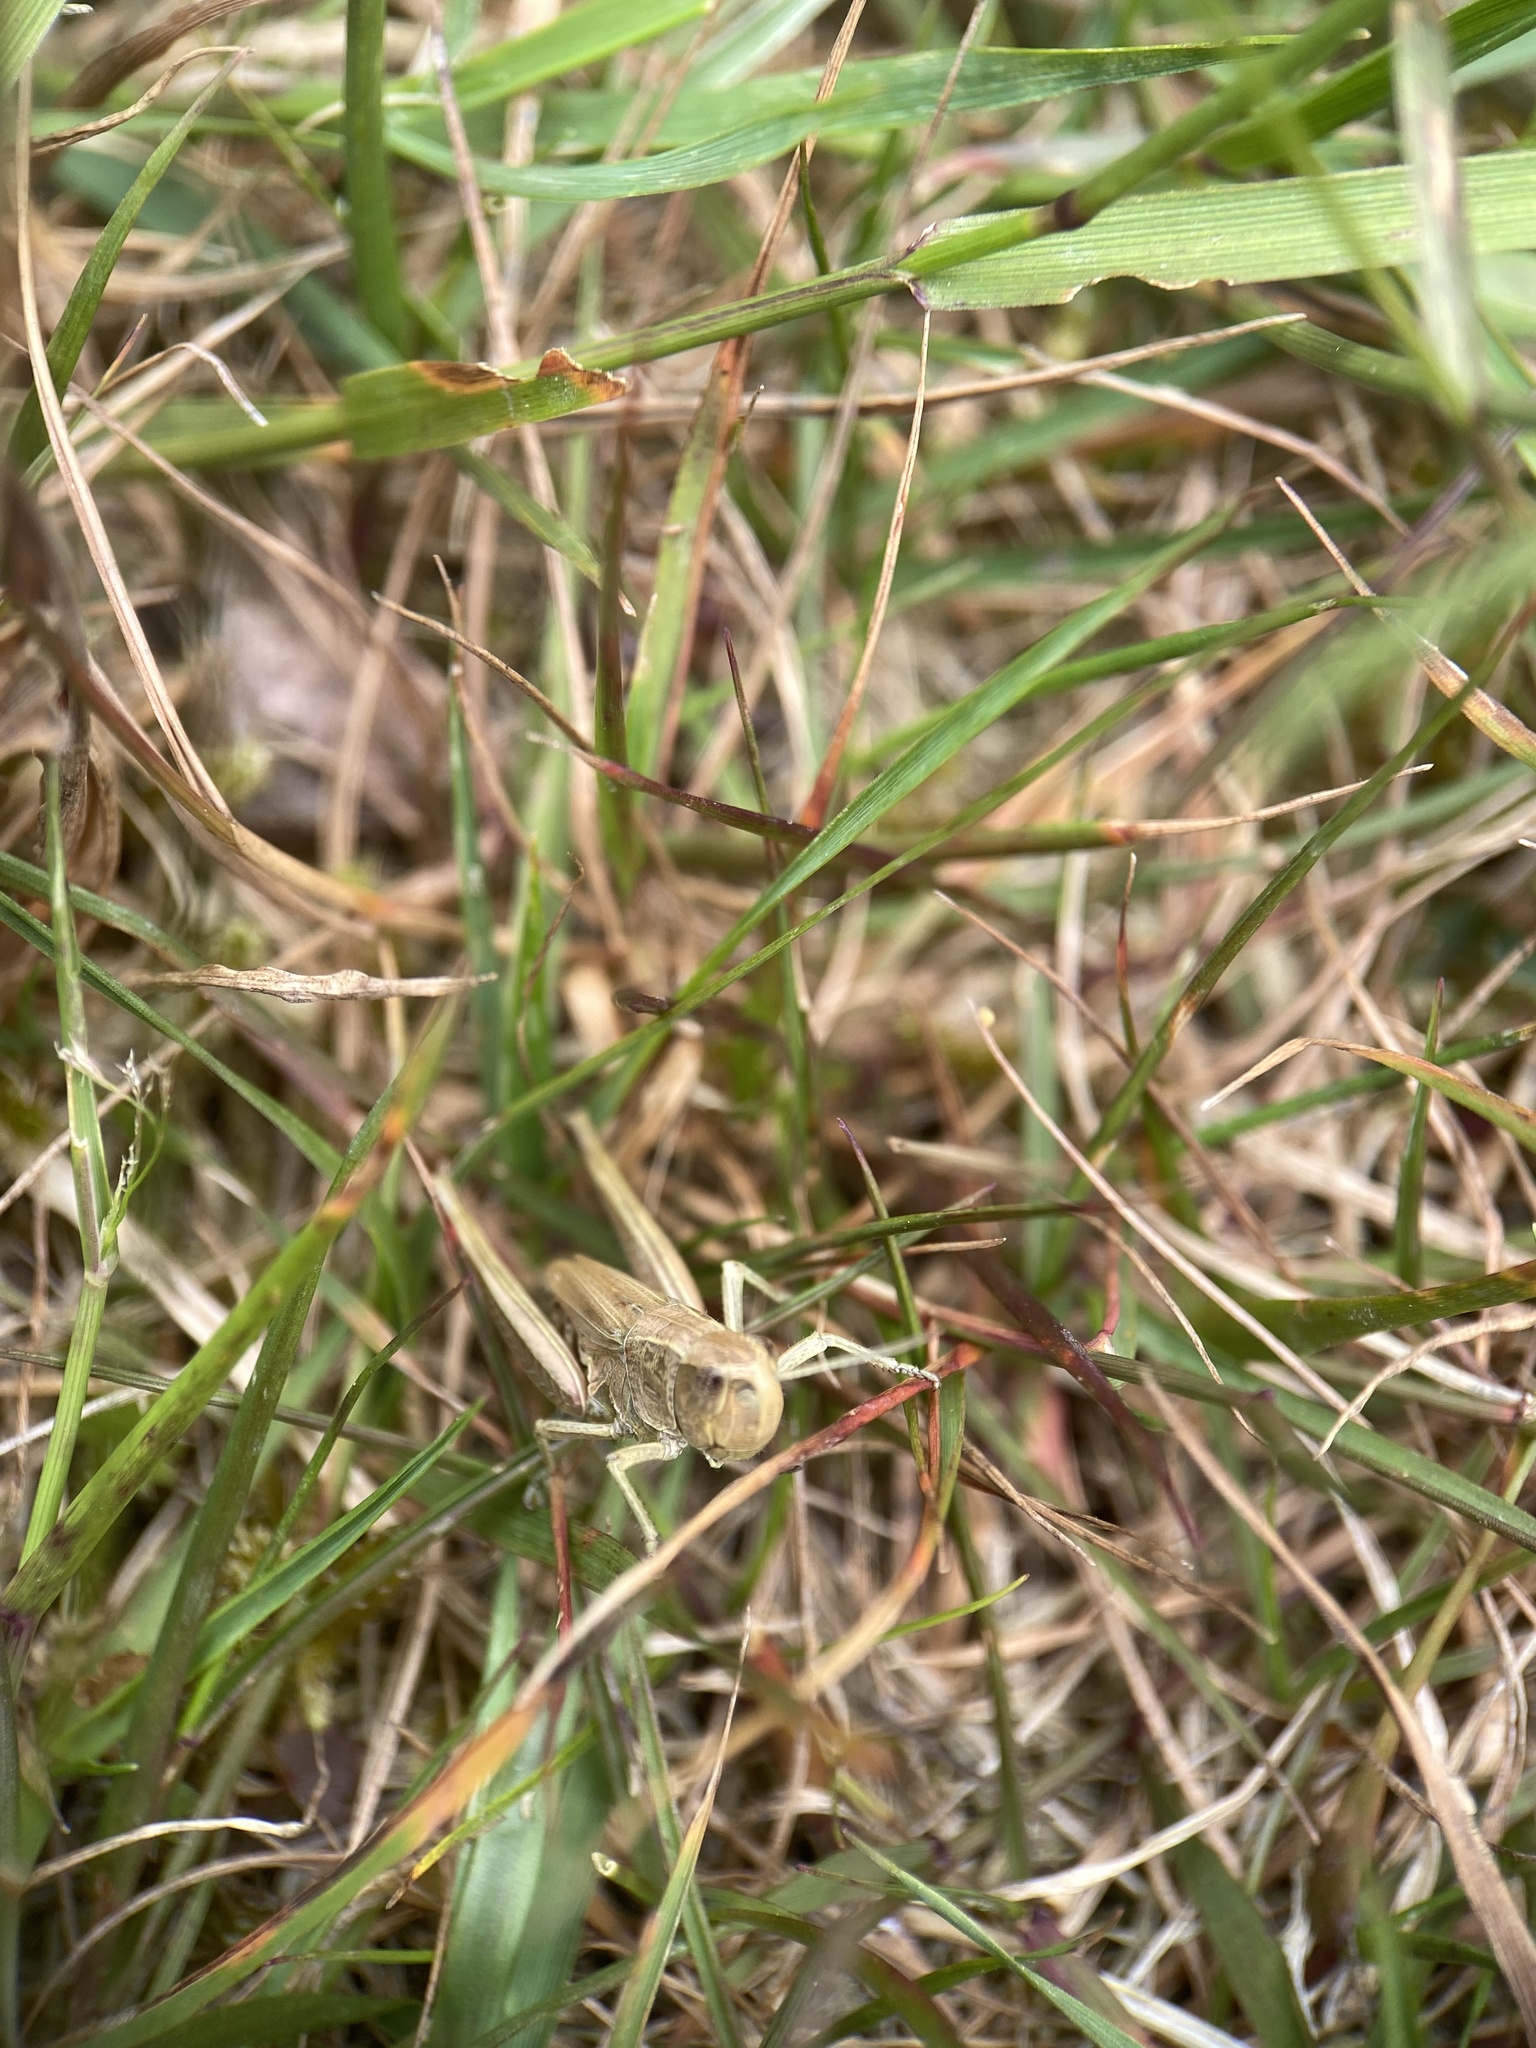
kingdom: Animalia
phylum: Arthropoda
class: Insecta
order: Orthoptera
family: Acrididae
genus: Pseudochorthippus
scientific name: Pseudochorthippus parallelus
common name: Meadow grasshopper
